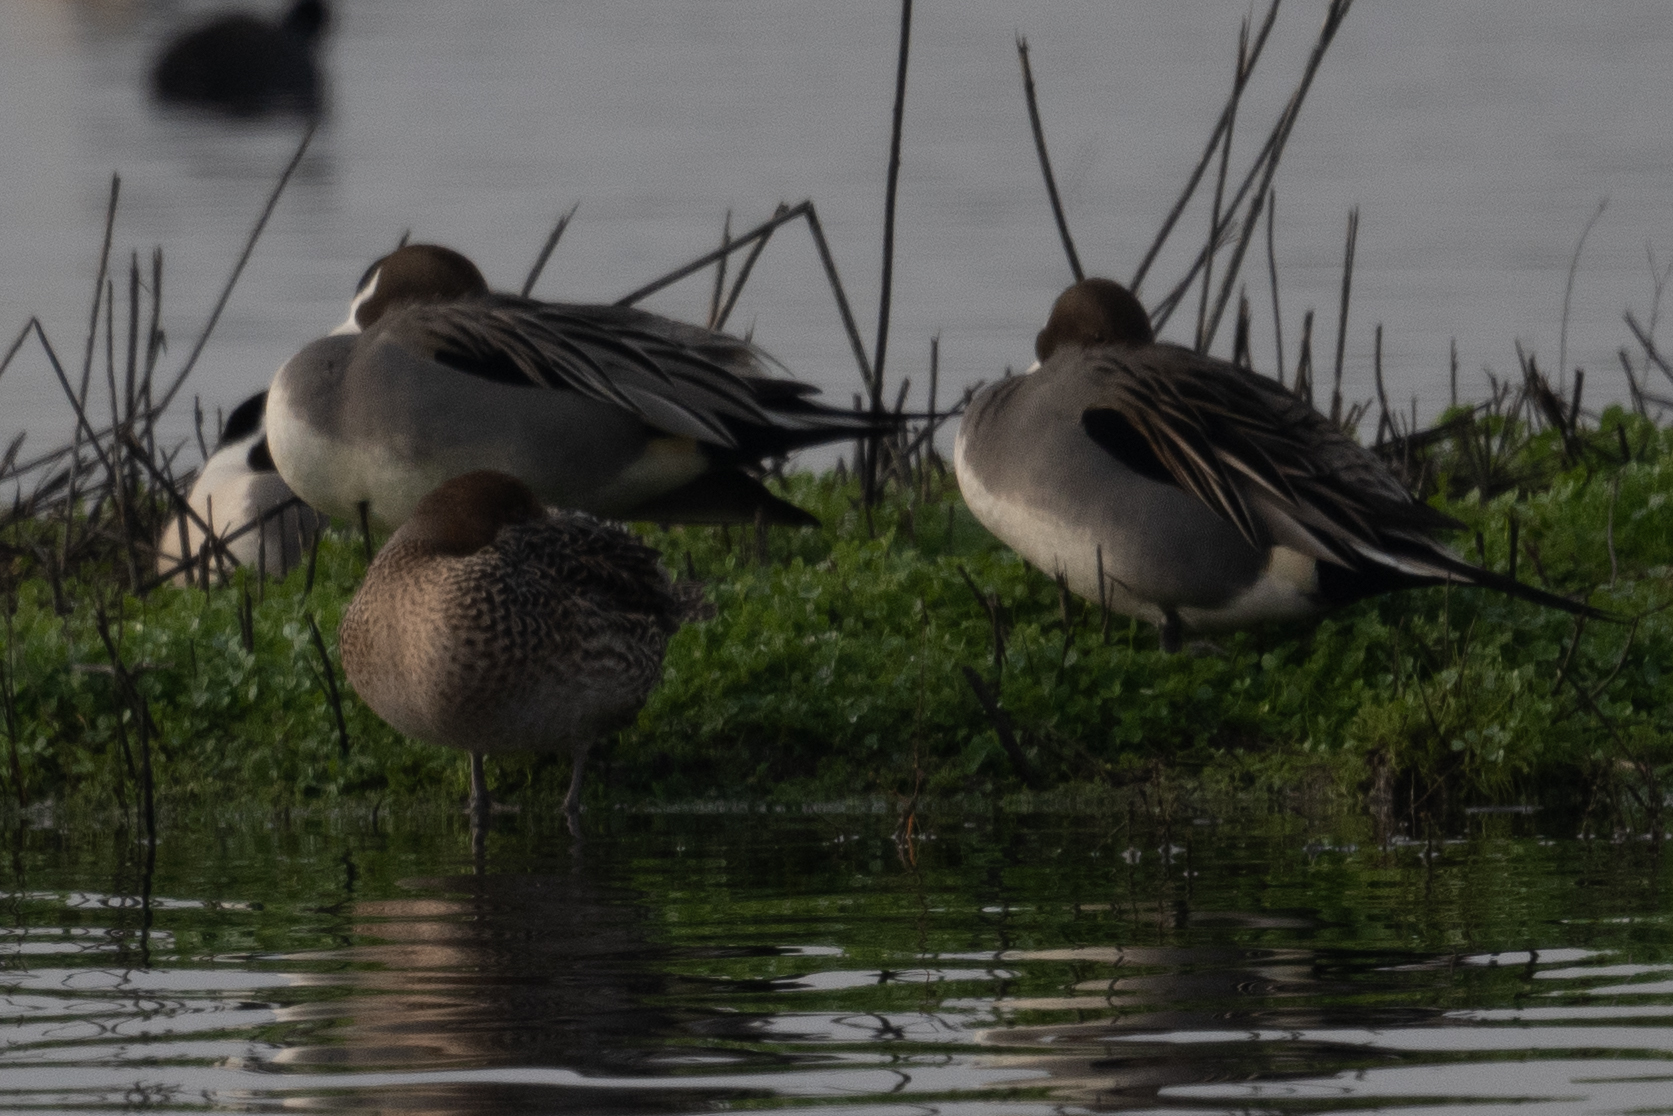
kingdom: Animalia
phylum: Chordata
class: Aves
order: Anseriformes
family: Anatidae
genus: Anas
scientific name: Anas acuta
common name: Northern pintail
